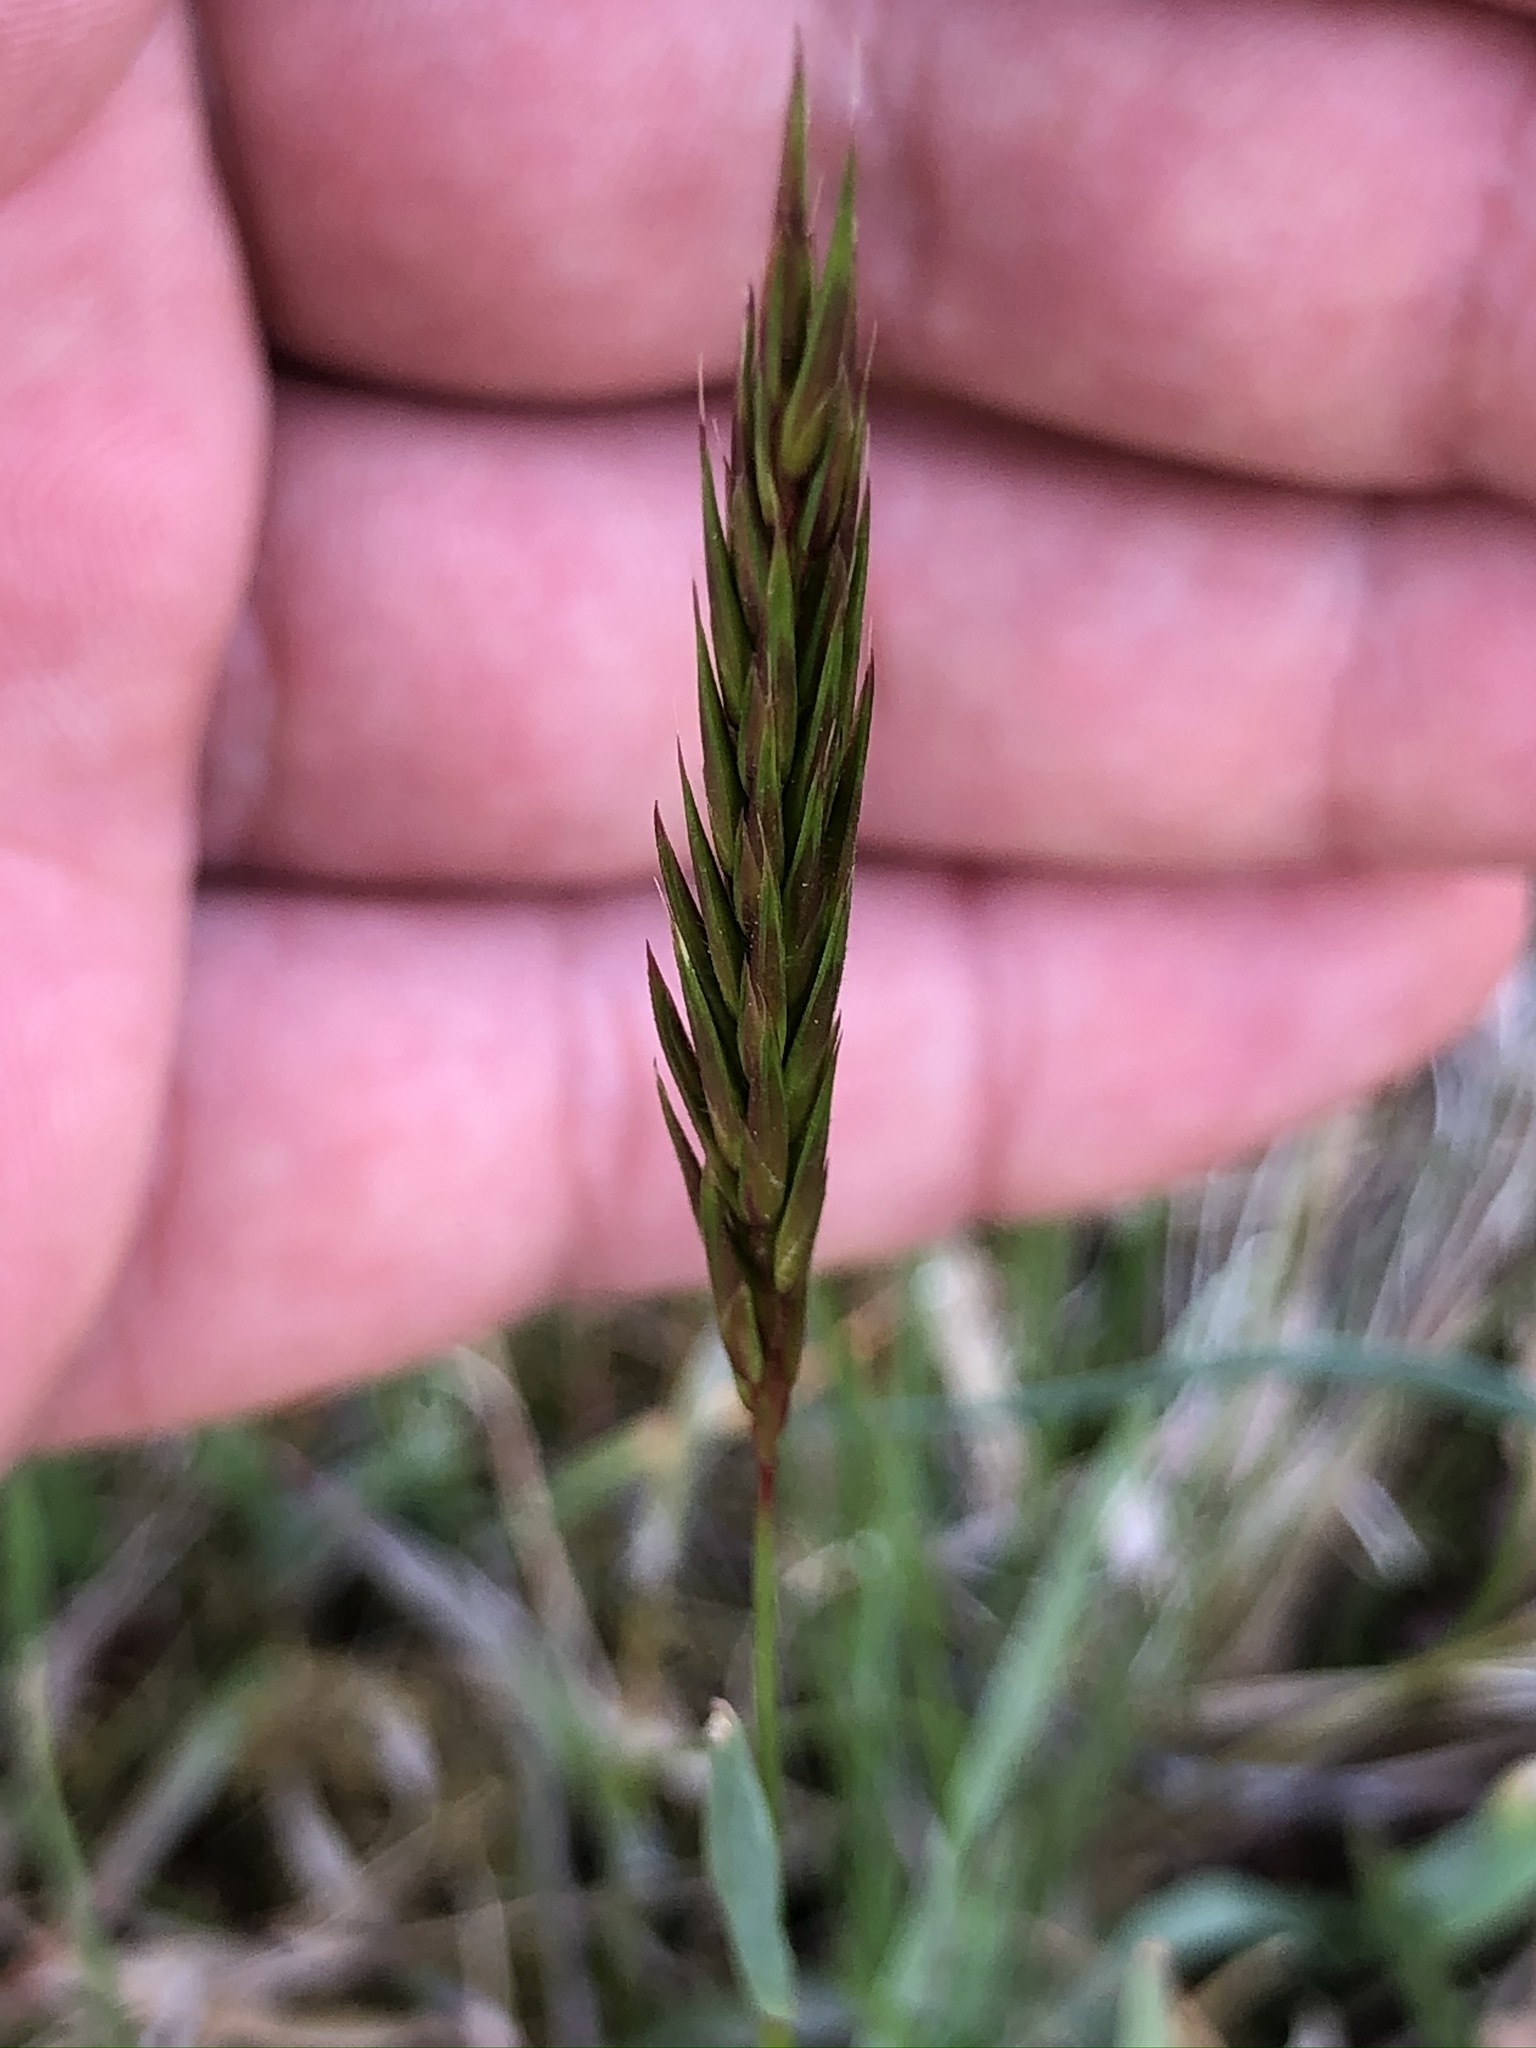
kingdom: Plantae
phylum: Tracheophyta
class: Liliopsida
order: Poales
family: Poaceae
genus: Anthoxanthum
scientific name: Anthoxanthum odoratum
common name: Sweet vernalgrass
